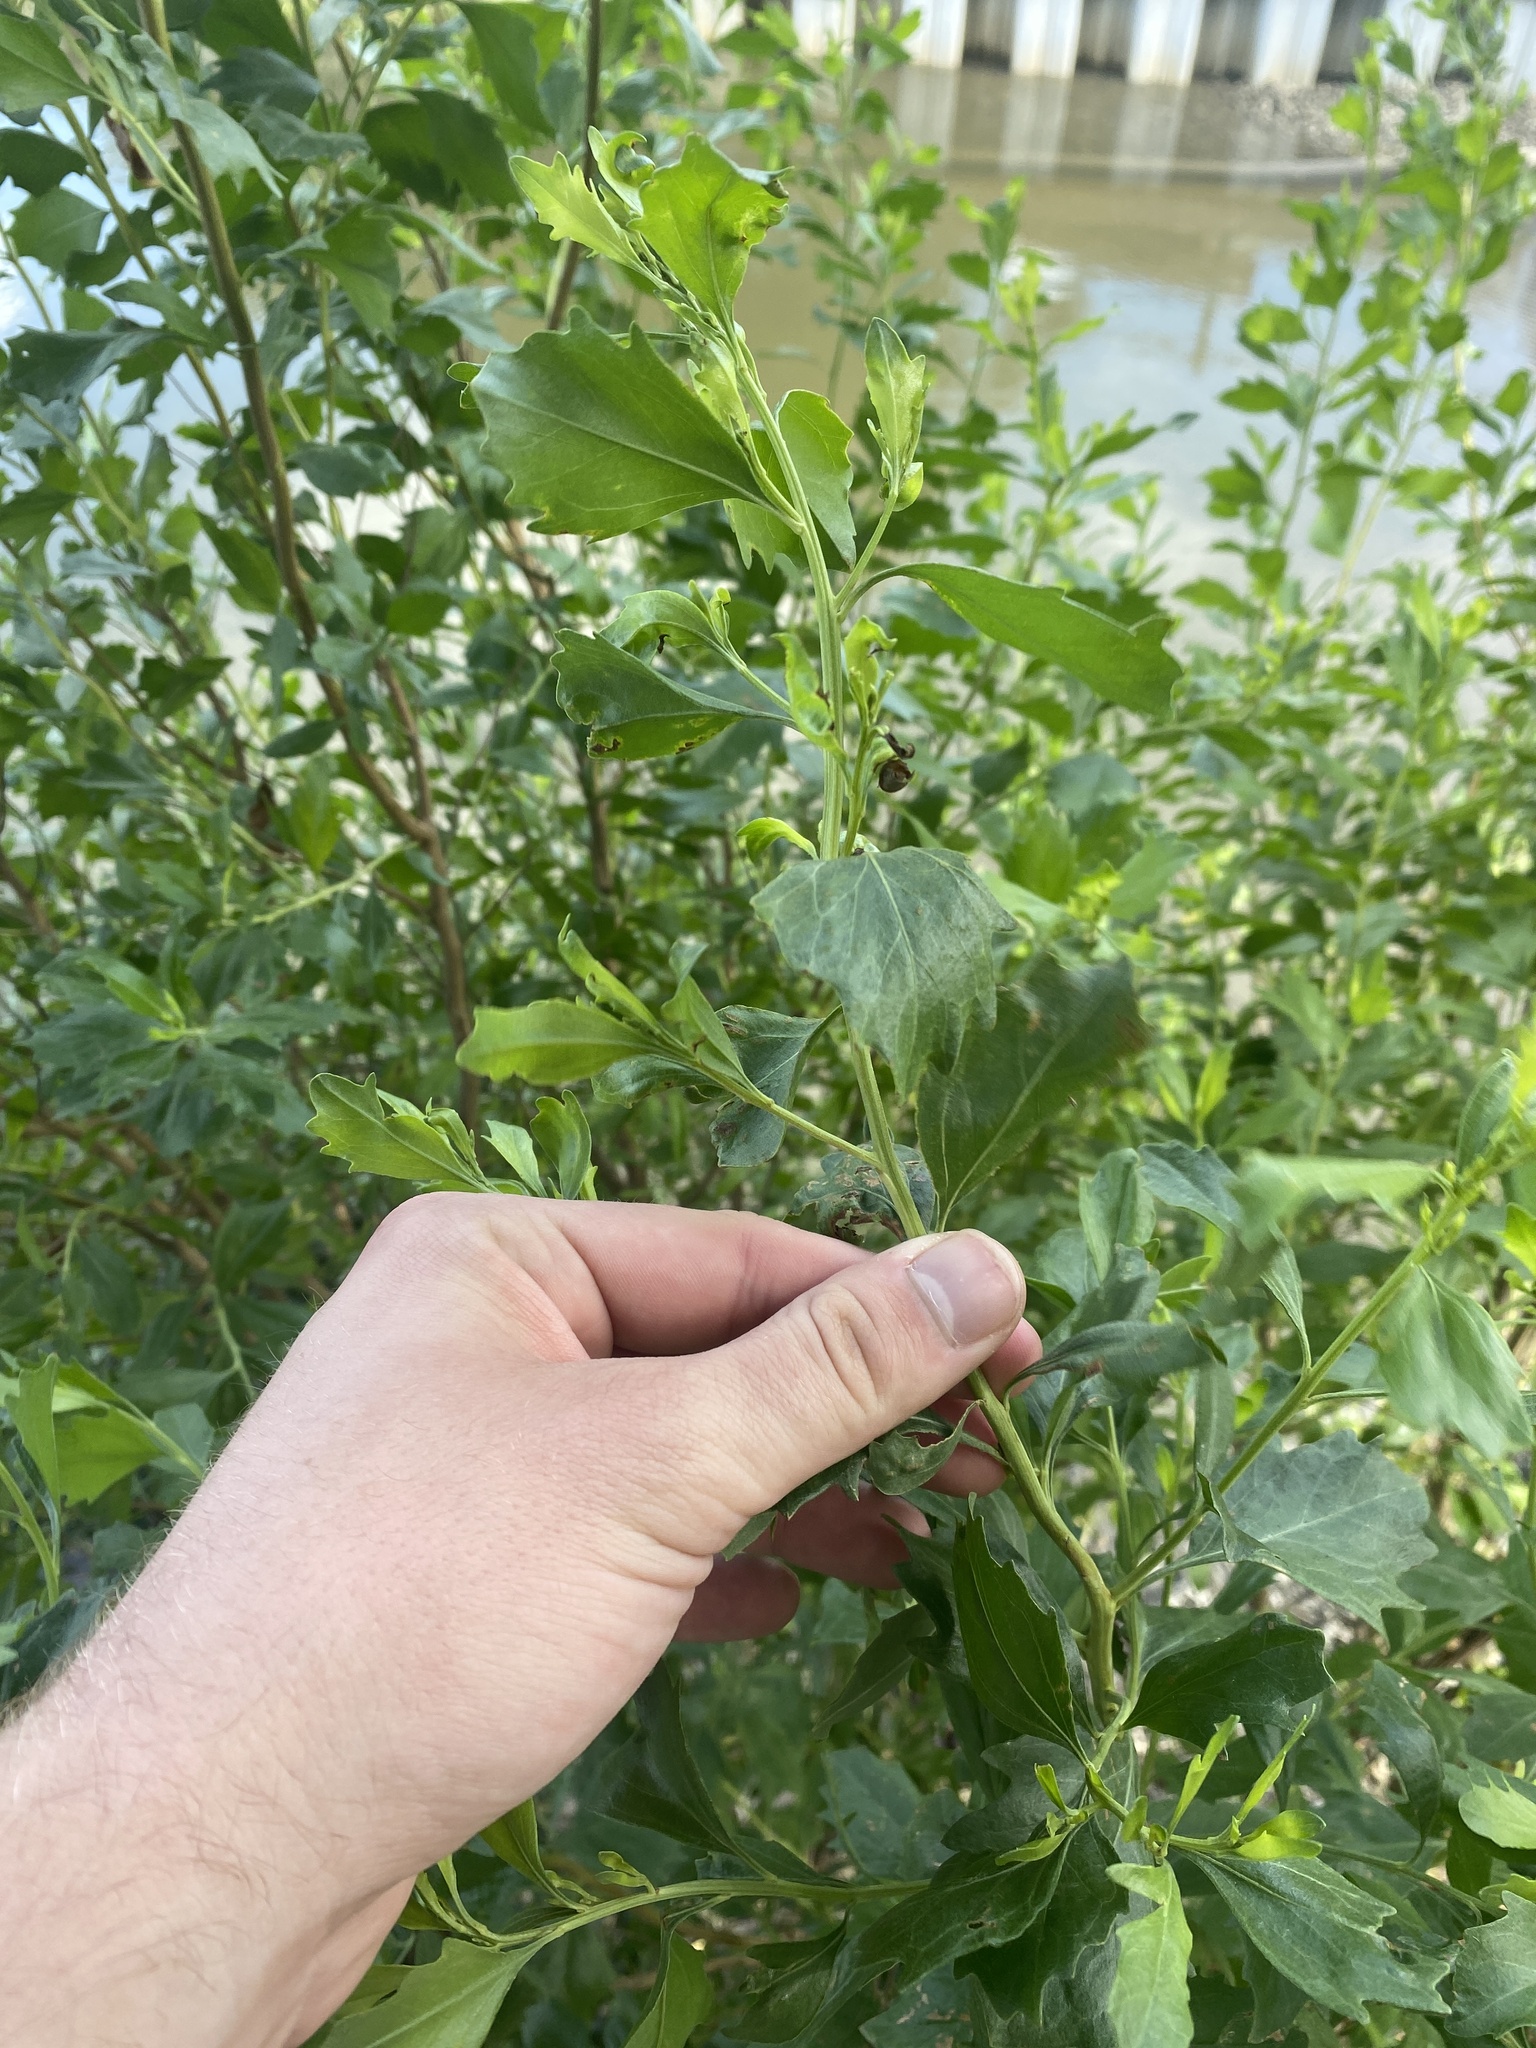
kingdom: Plantae
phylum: Tracheophyta
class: Magnoliopsida
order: Asterales
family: Asteraceae
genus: Baccharis
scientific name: Baccharis halimifolia
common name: Eastern baccharis
